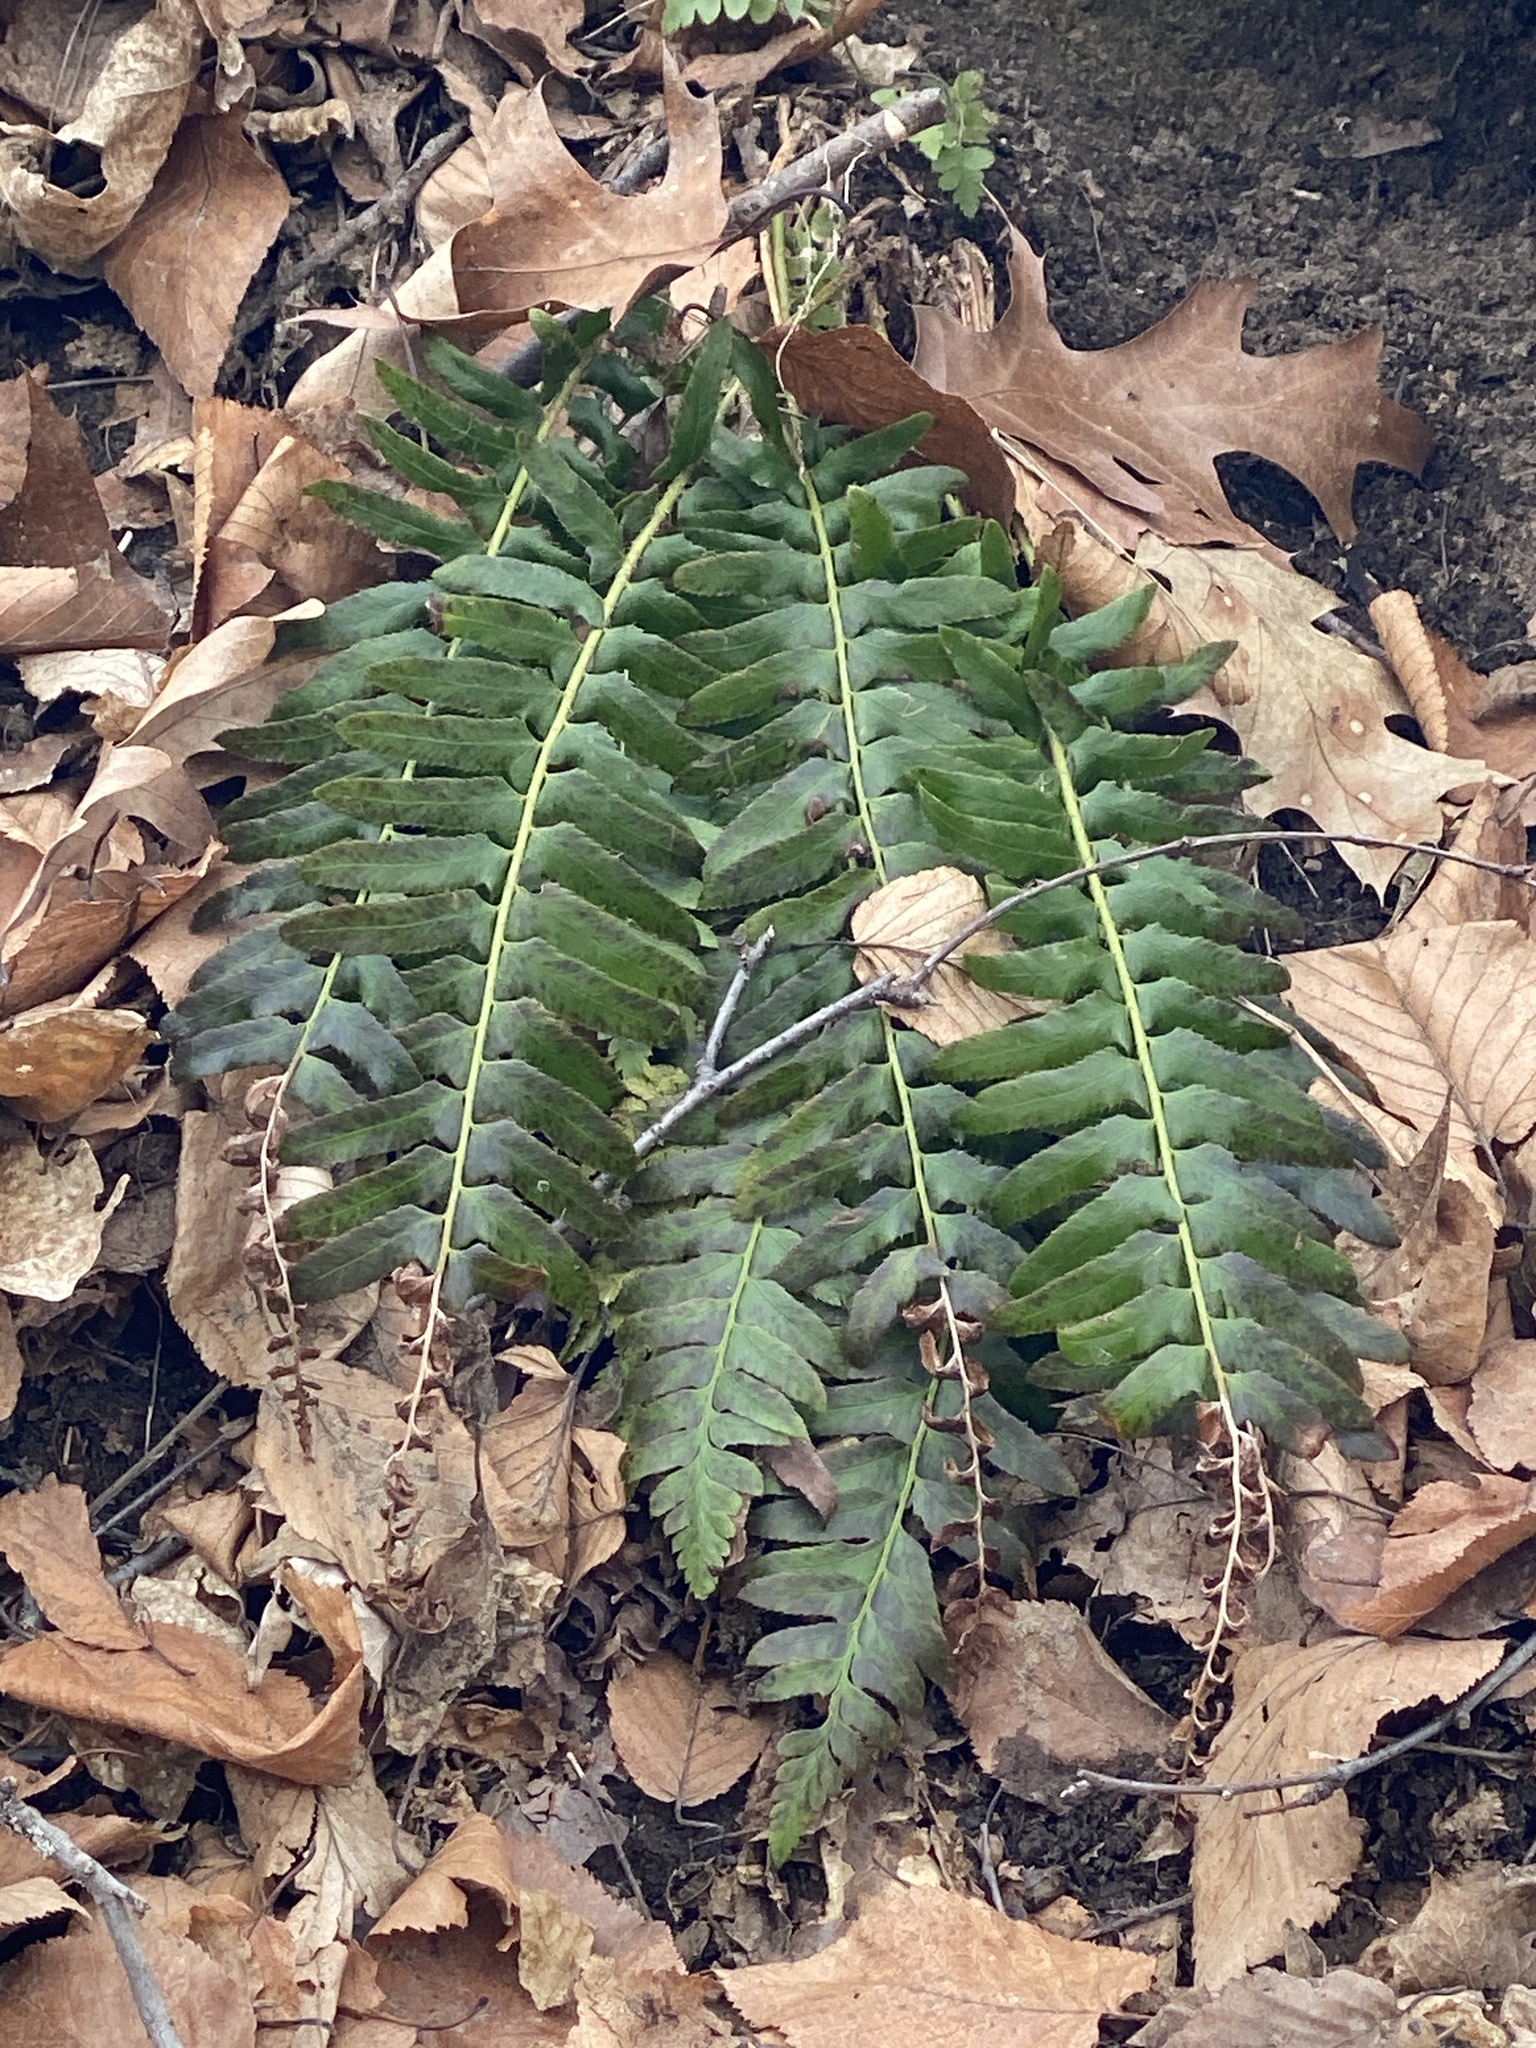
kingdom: Plantae
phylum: Tracheophyta
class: Polypodiopsida
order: Polypodiales
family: Dryopteridaceae
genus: Polystichum
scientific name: Polystichum acrostichoides
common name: Christmas fern
